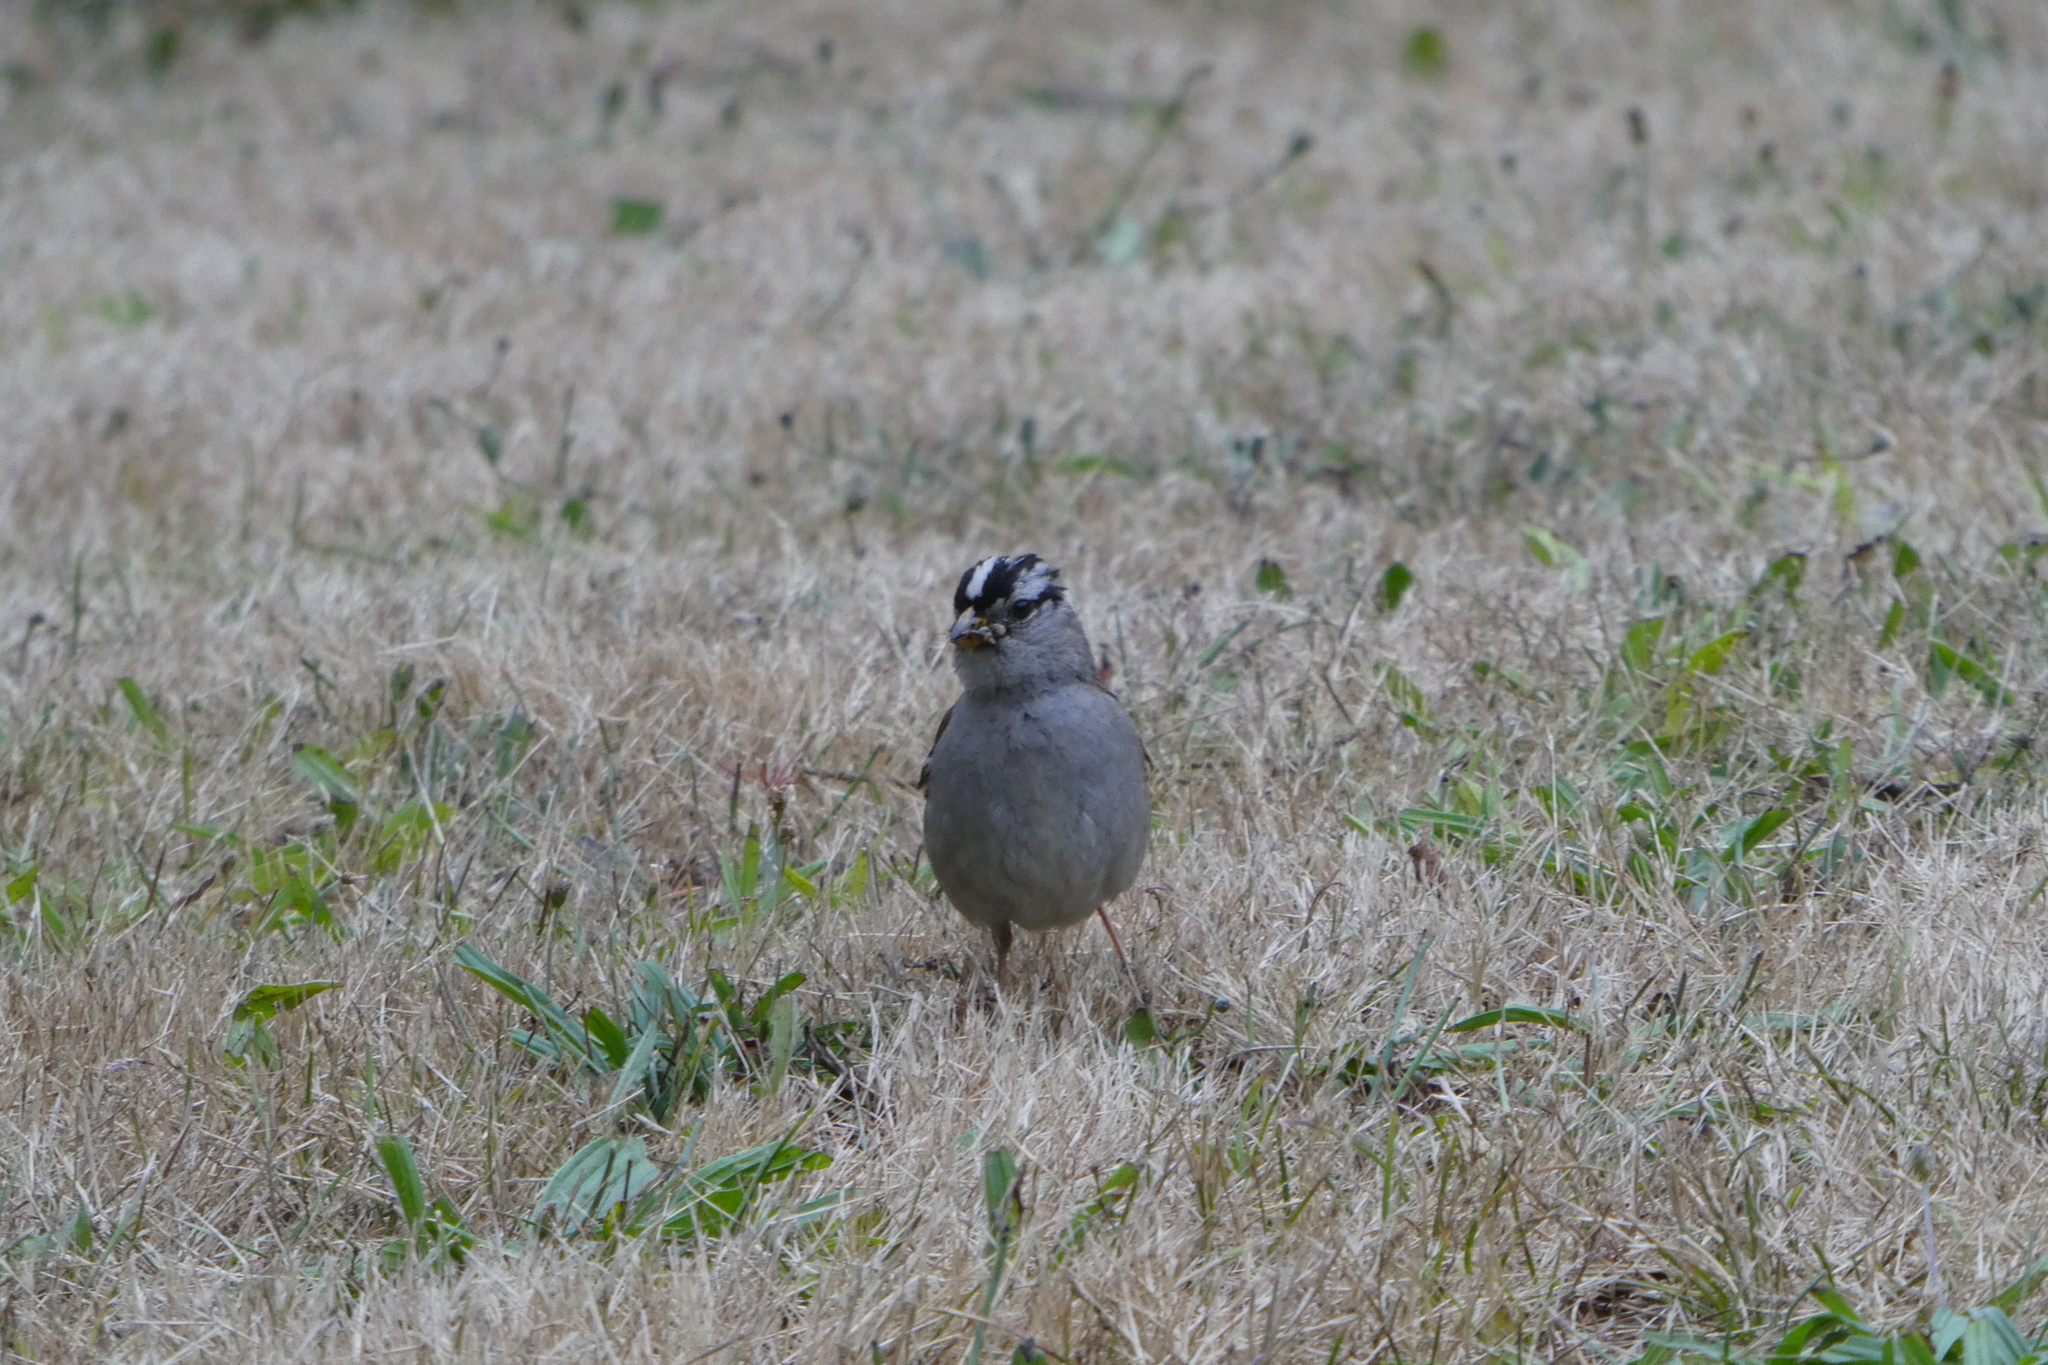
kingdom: Animalia
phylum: Chordata
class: Aves
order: Passeriformes
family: Passerellidae
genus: Zonotrichia
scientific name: Zonotrichia leucophrys
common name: White-crowned sparrow
